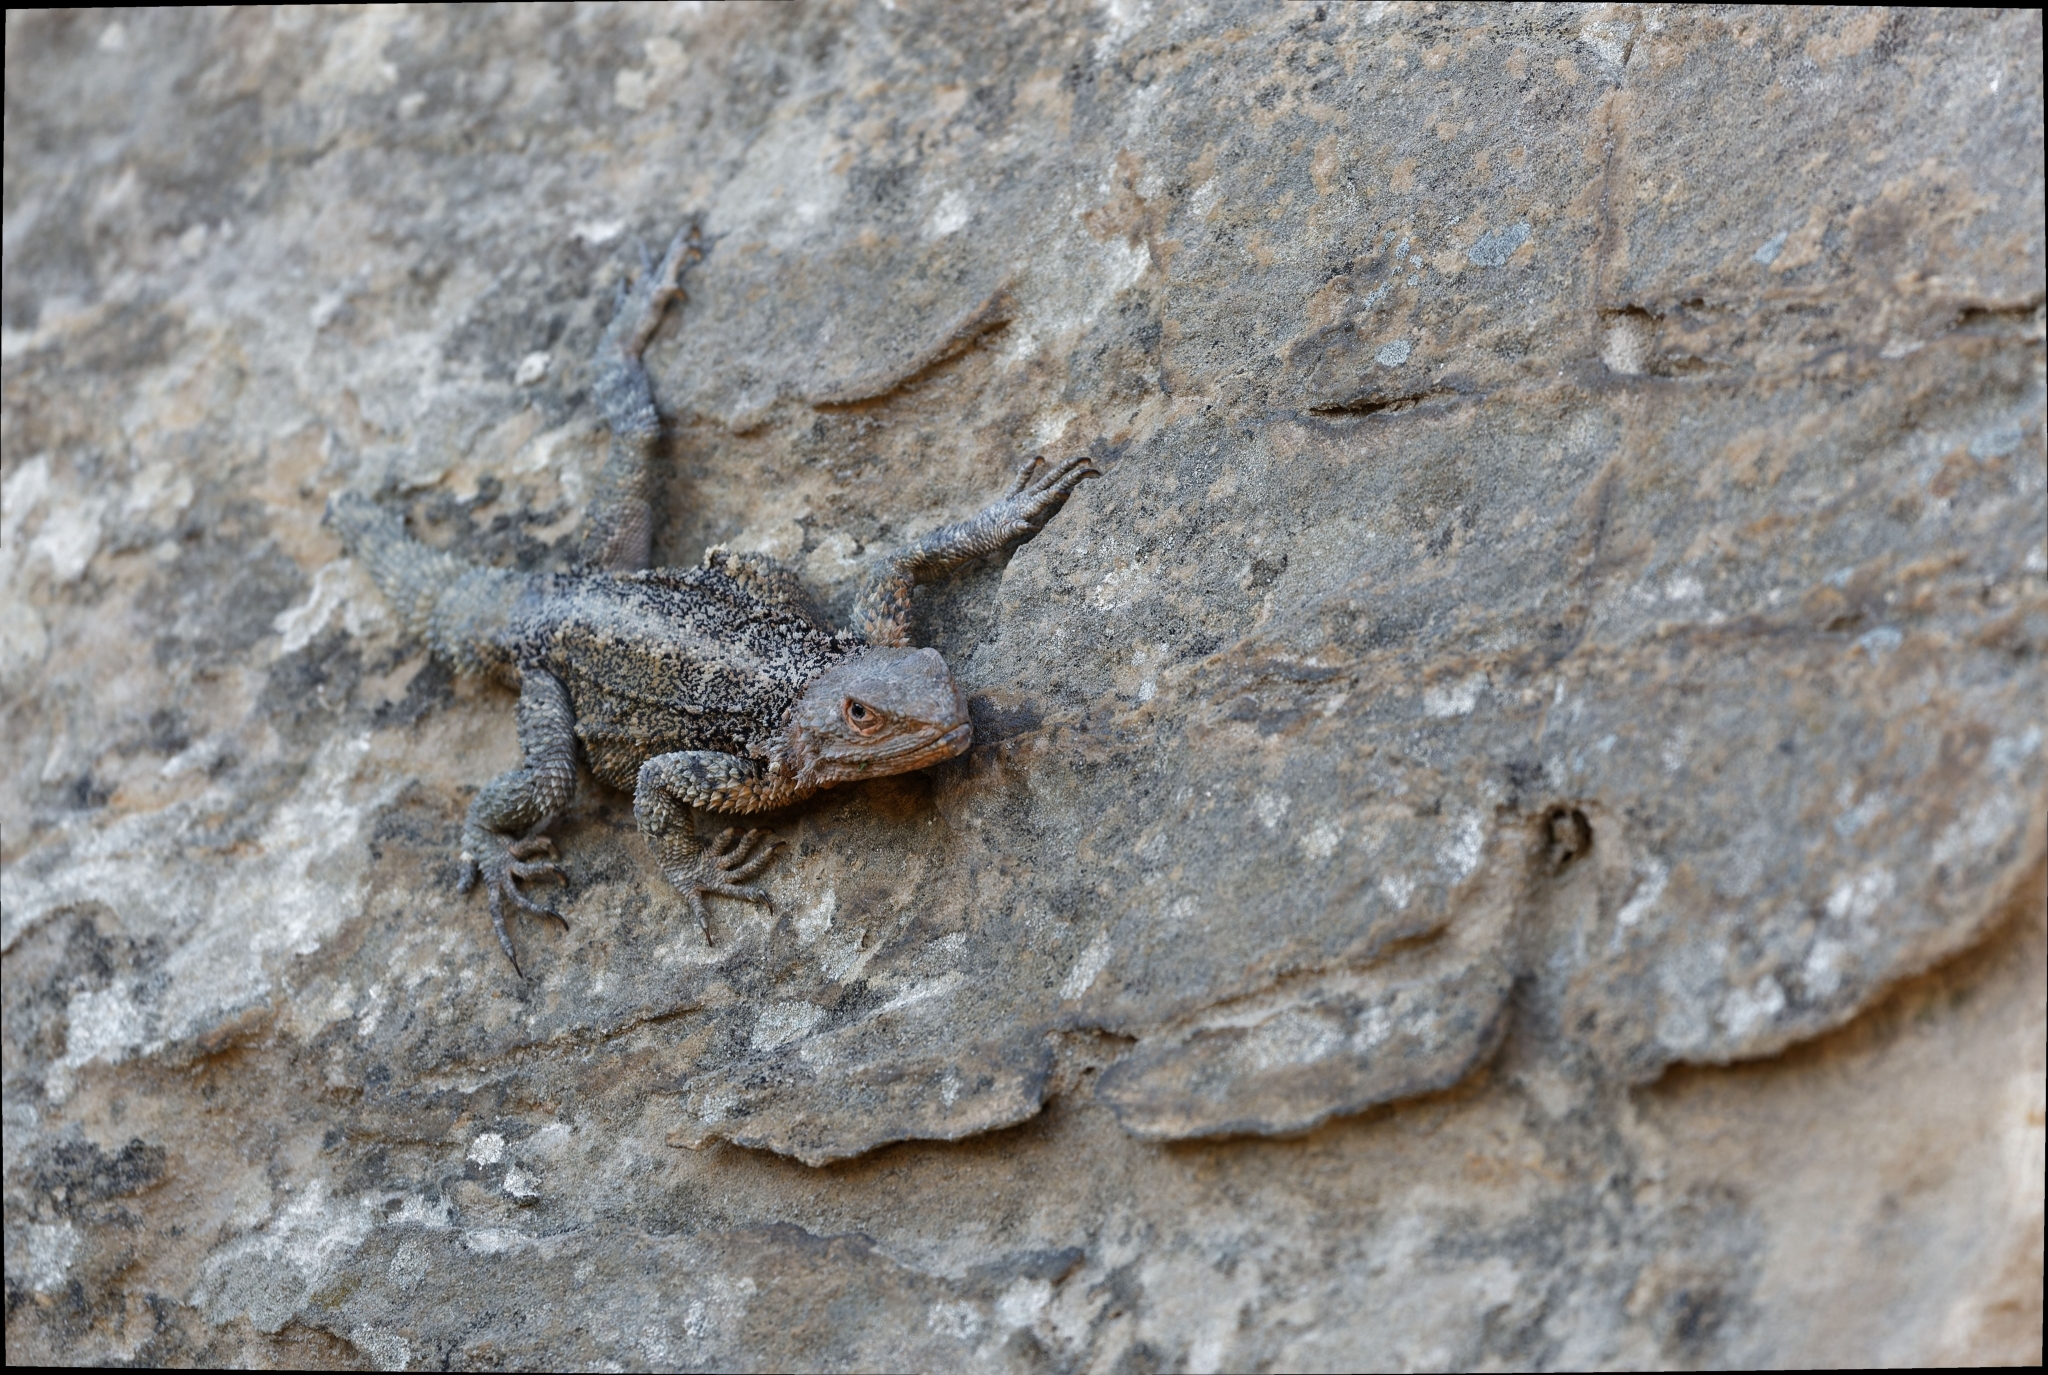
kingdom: Animalia
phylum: Chordata
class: Squamata
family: Agamidae
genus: Paralaudakia
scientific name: Paralaudakia caucasia
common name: Caucasian agama
